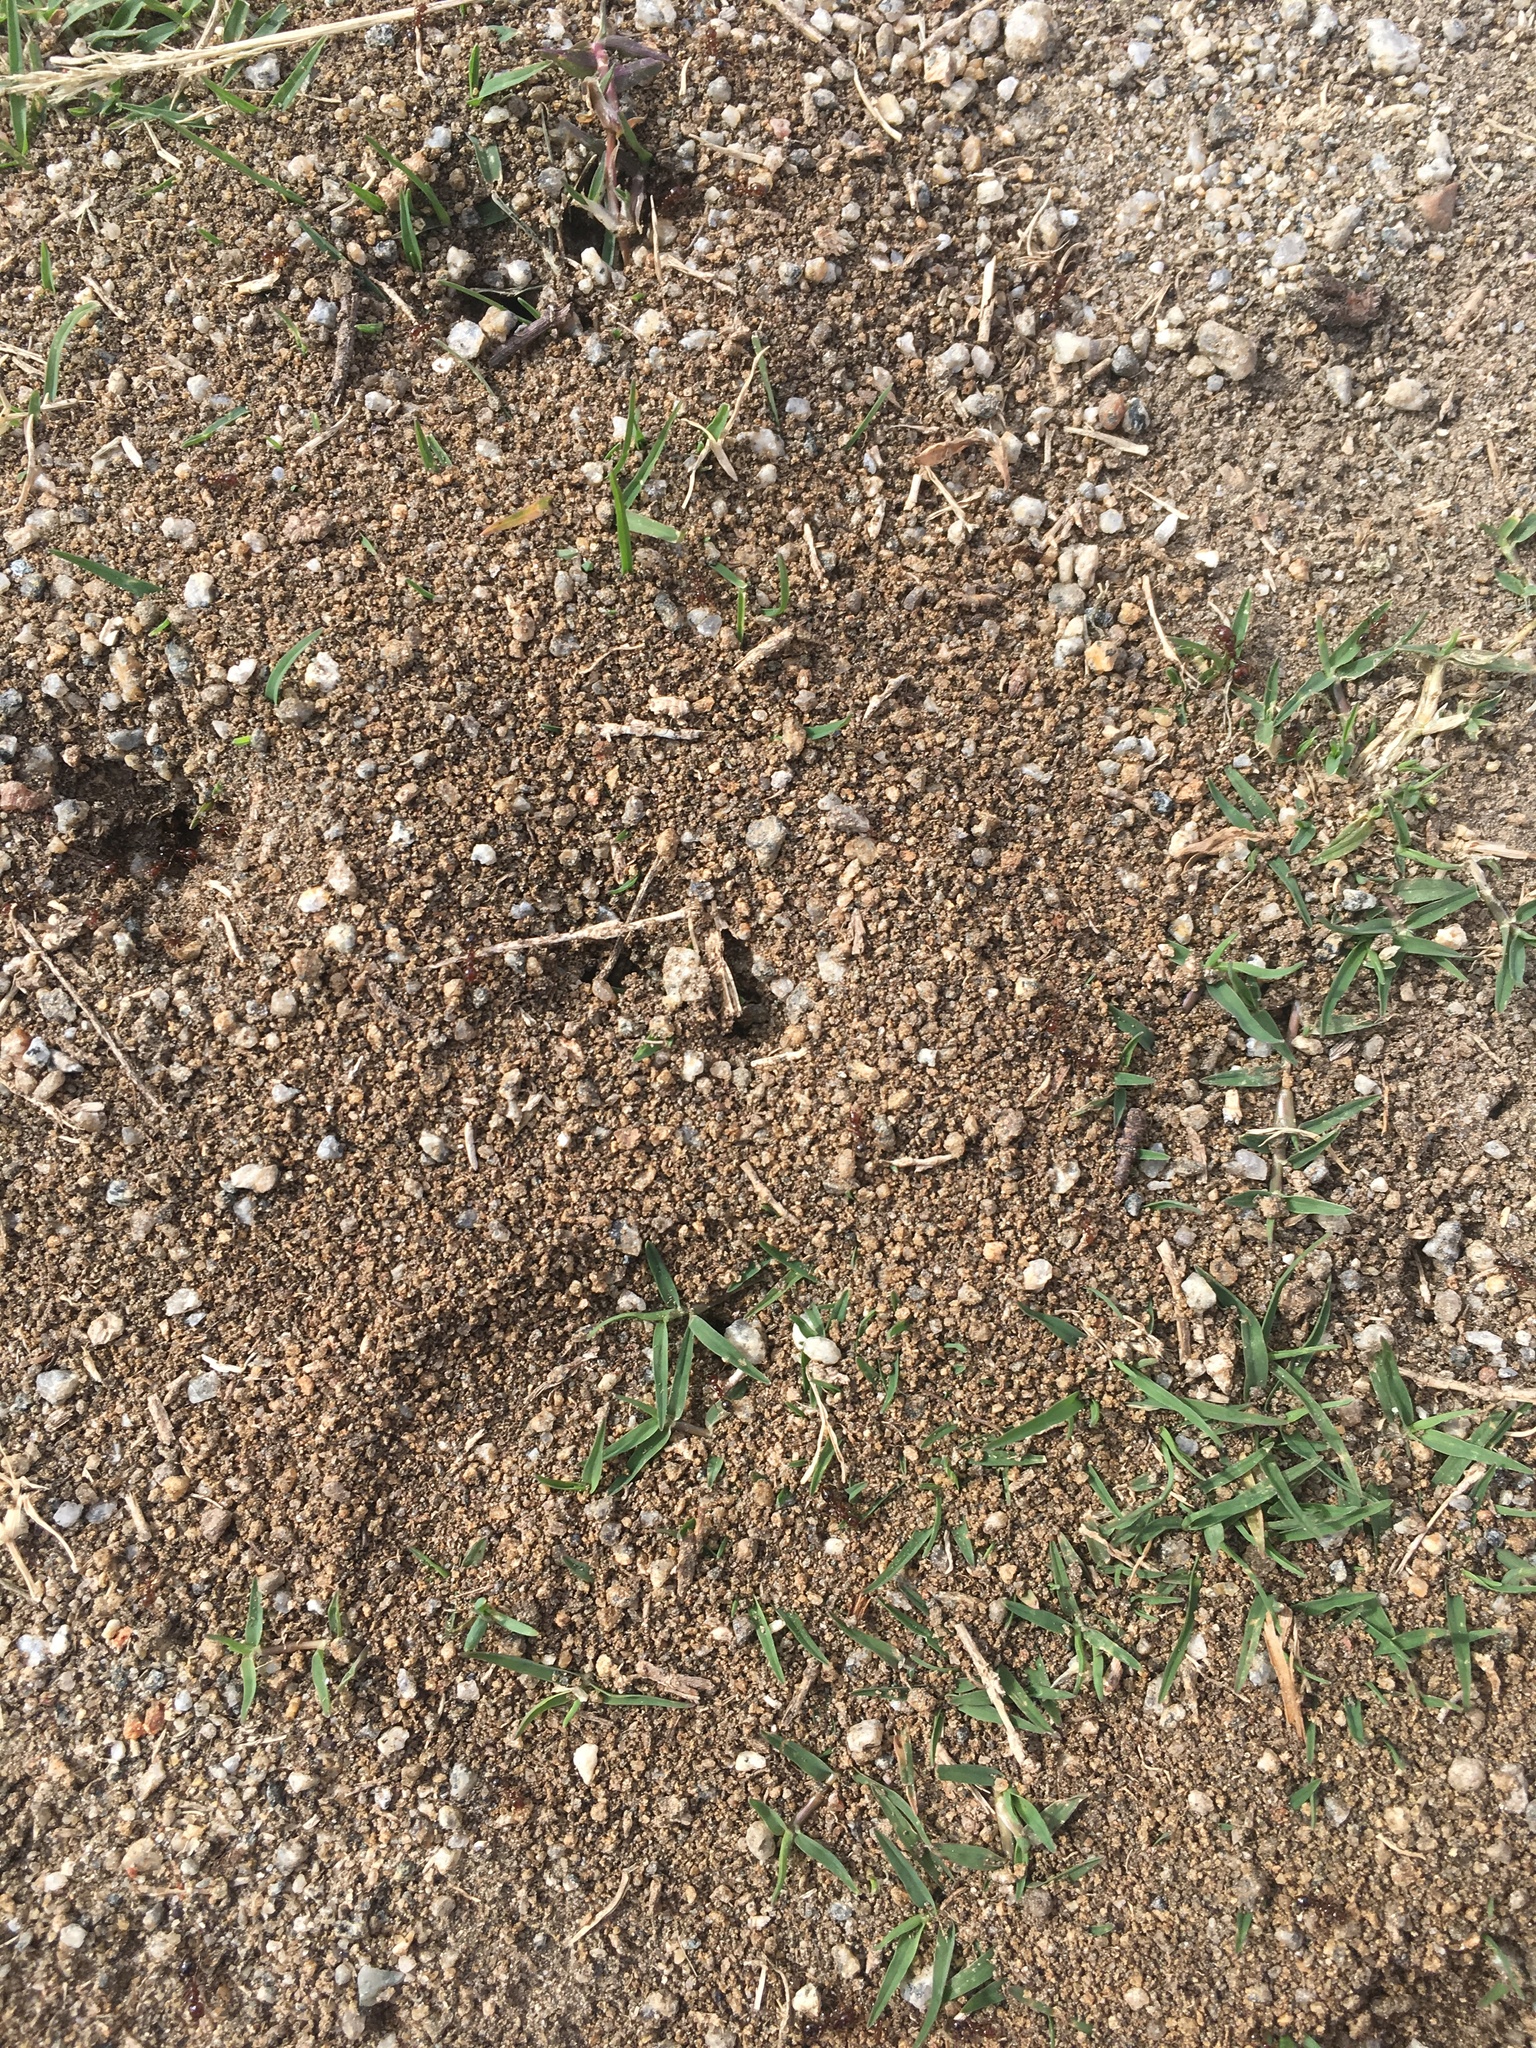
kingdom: Animalia
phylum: Arthropoda
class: Insecta
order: Hymenoptera
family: Formicidae
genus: Solenopsis
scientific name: Solenopsis invicta
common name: Red imported fire ant
